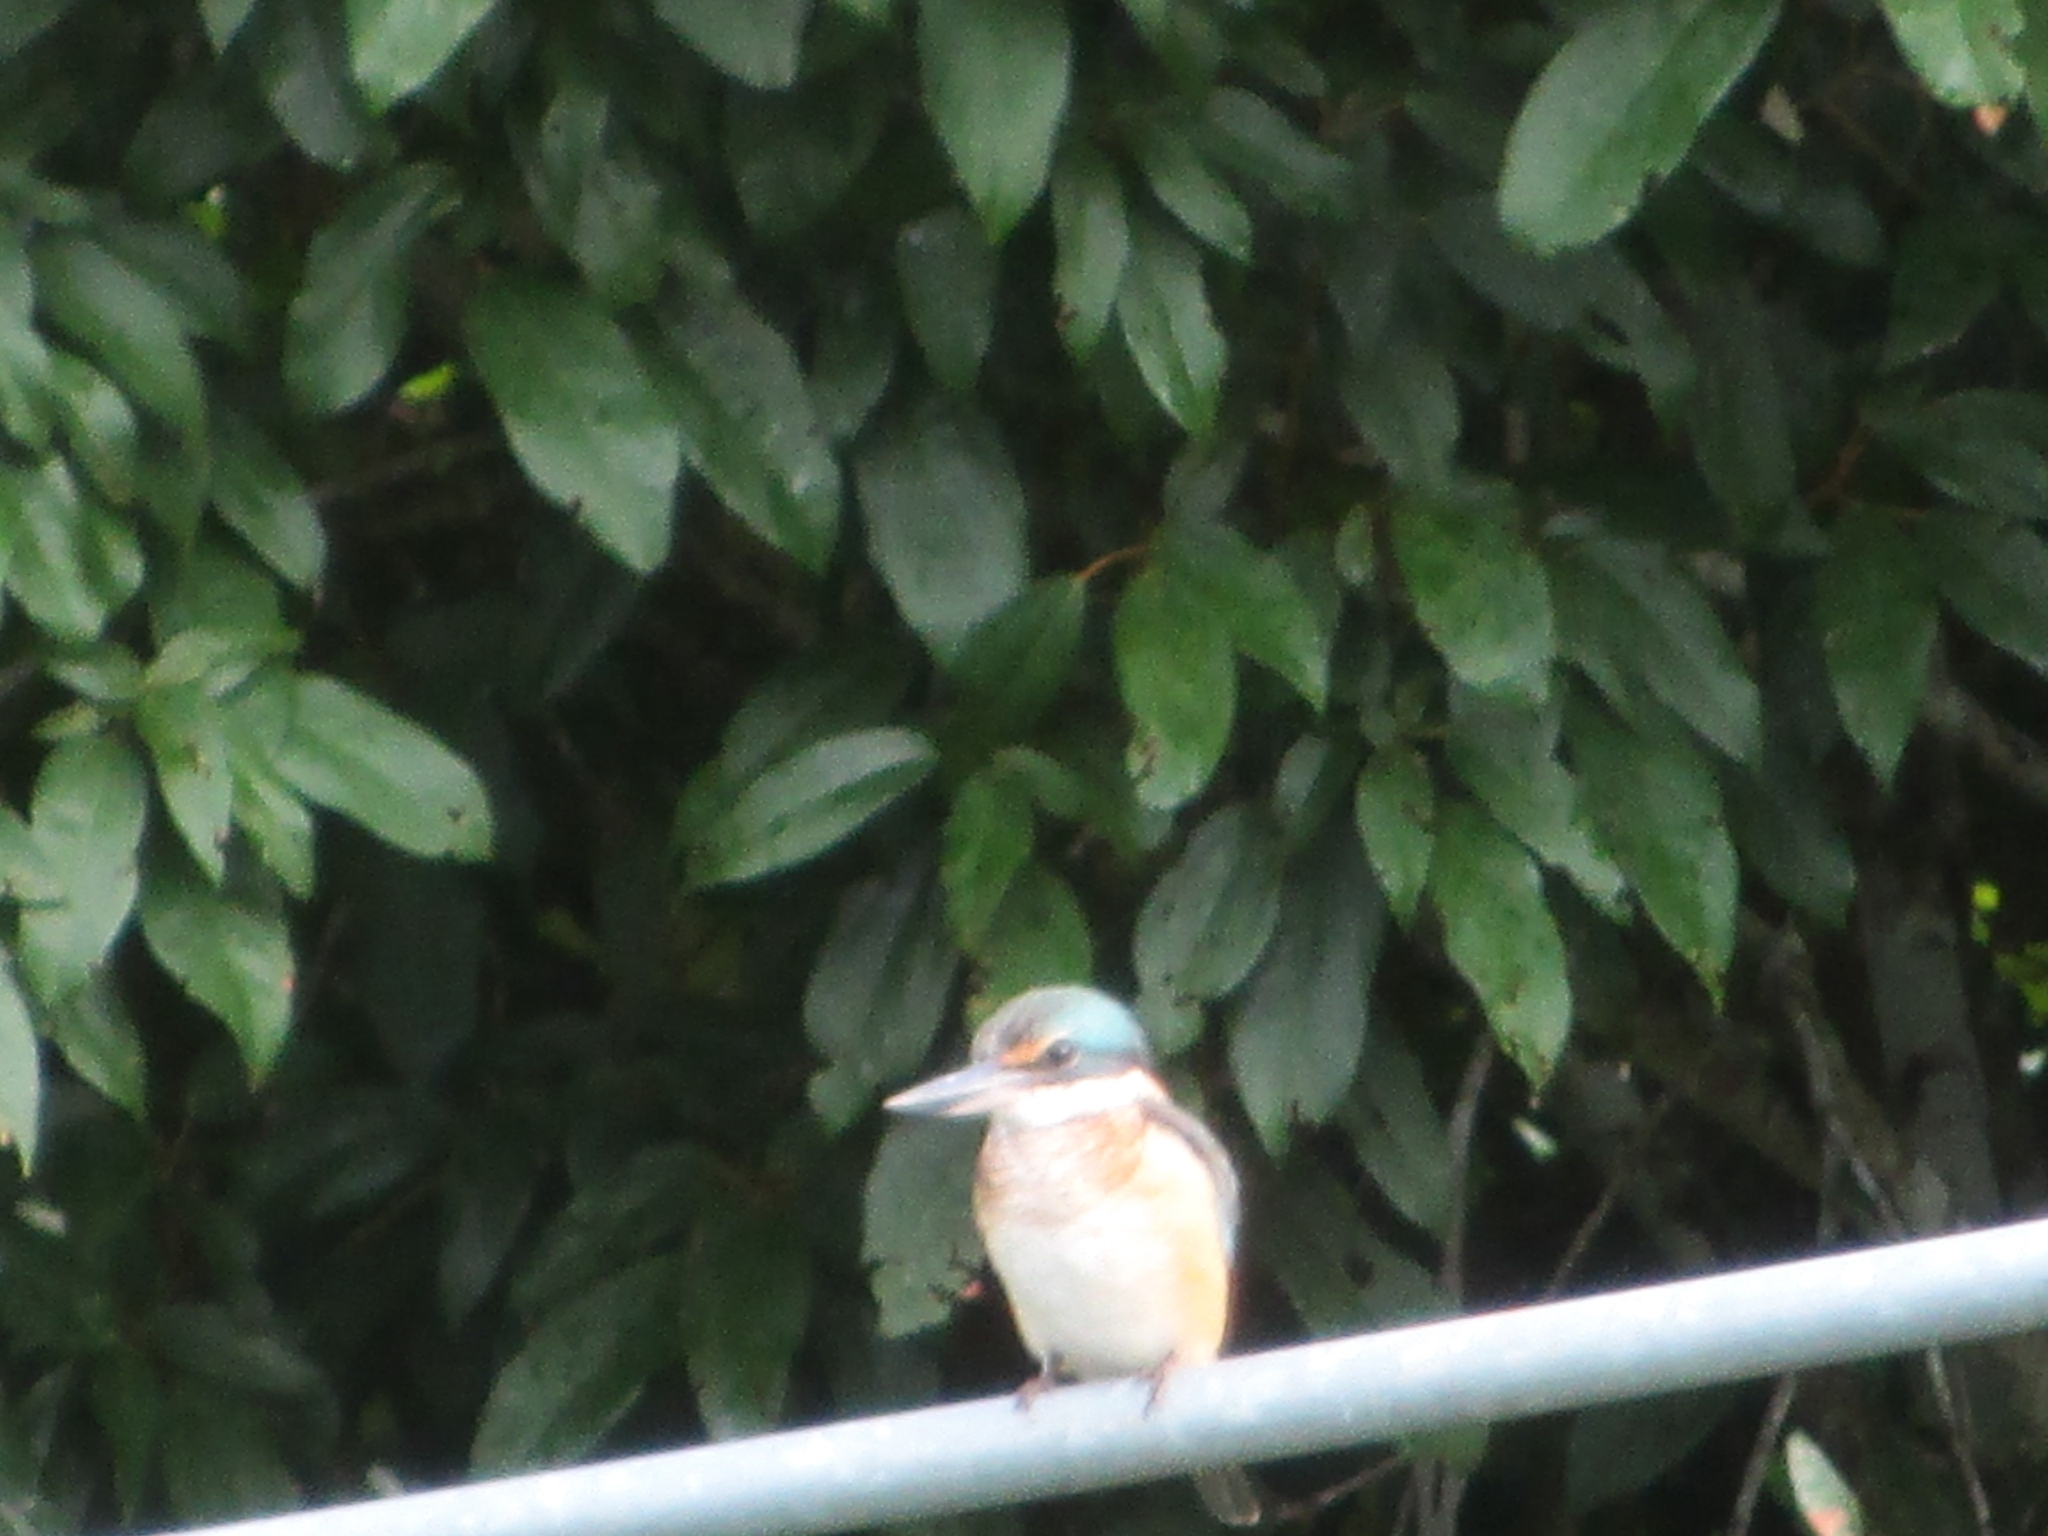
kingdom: Animalia
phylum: Chordata
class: Aves
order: Coraciiformes
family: Alcedinidae
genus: Todiramphus
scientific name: Todiramphus sanctus
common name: Sacred kingfisher
